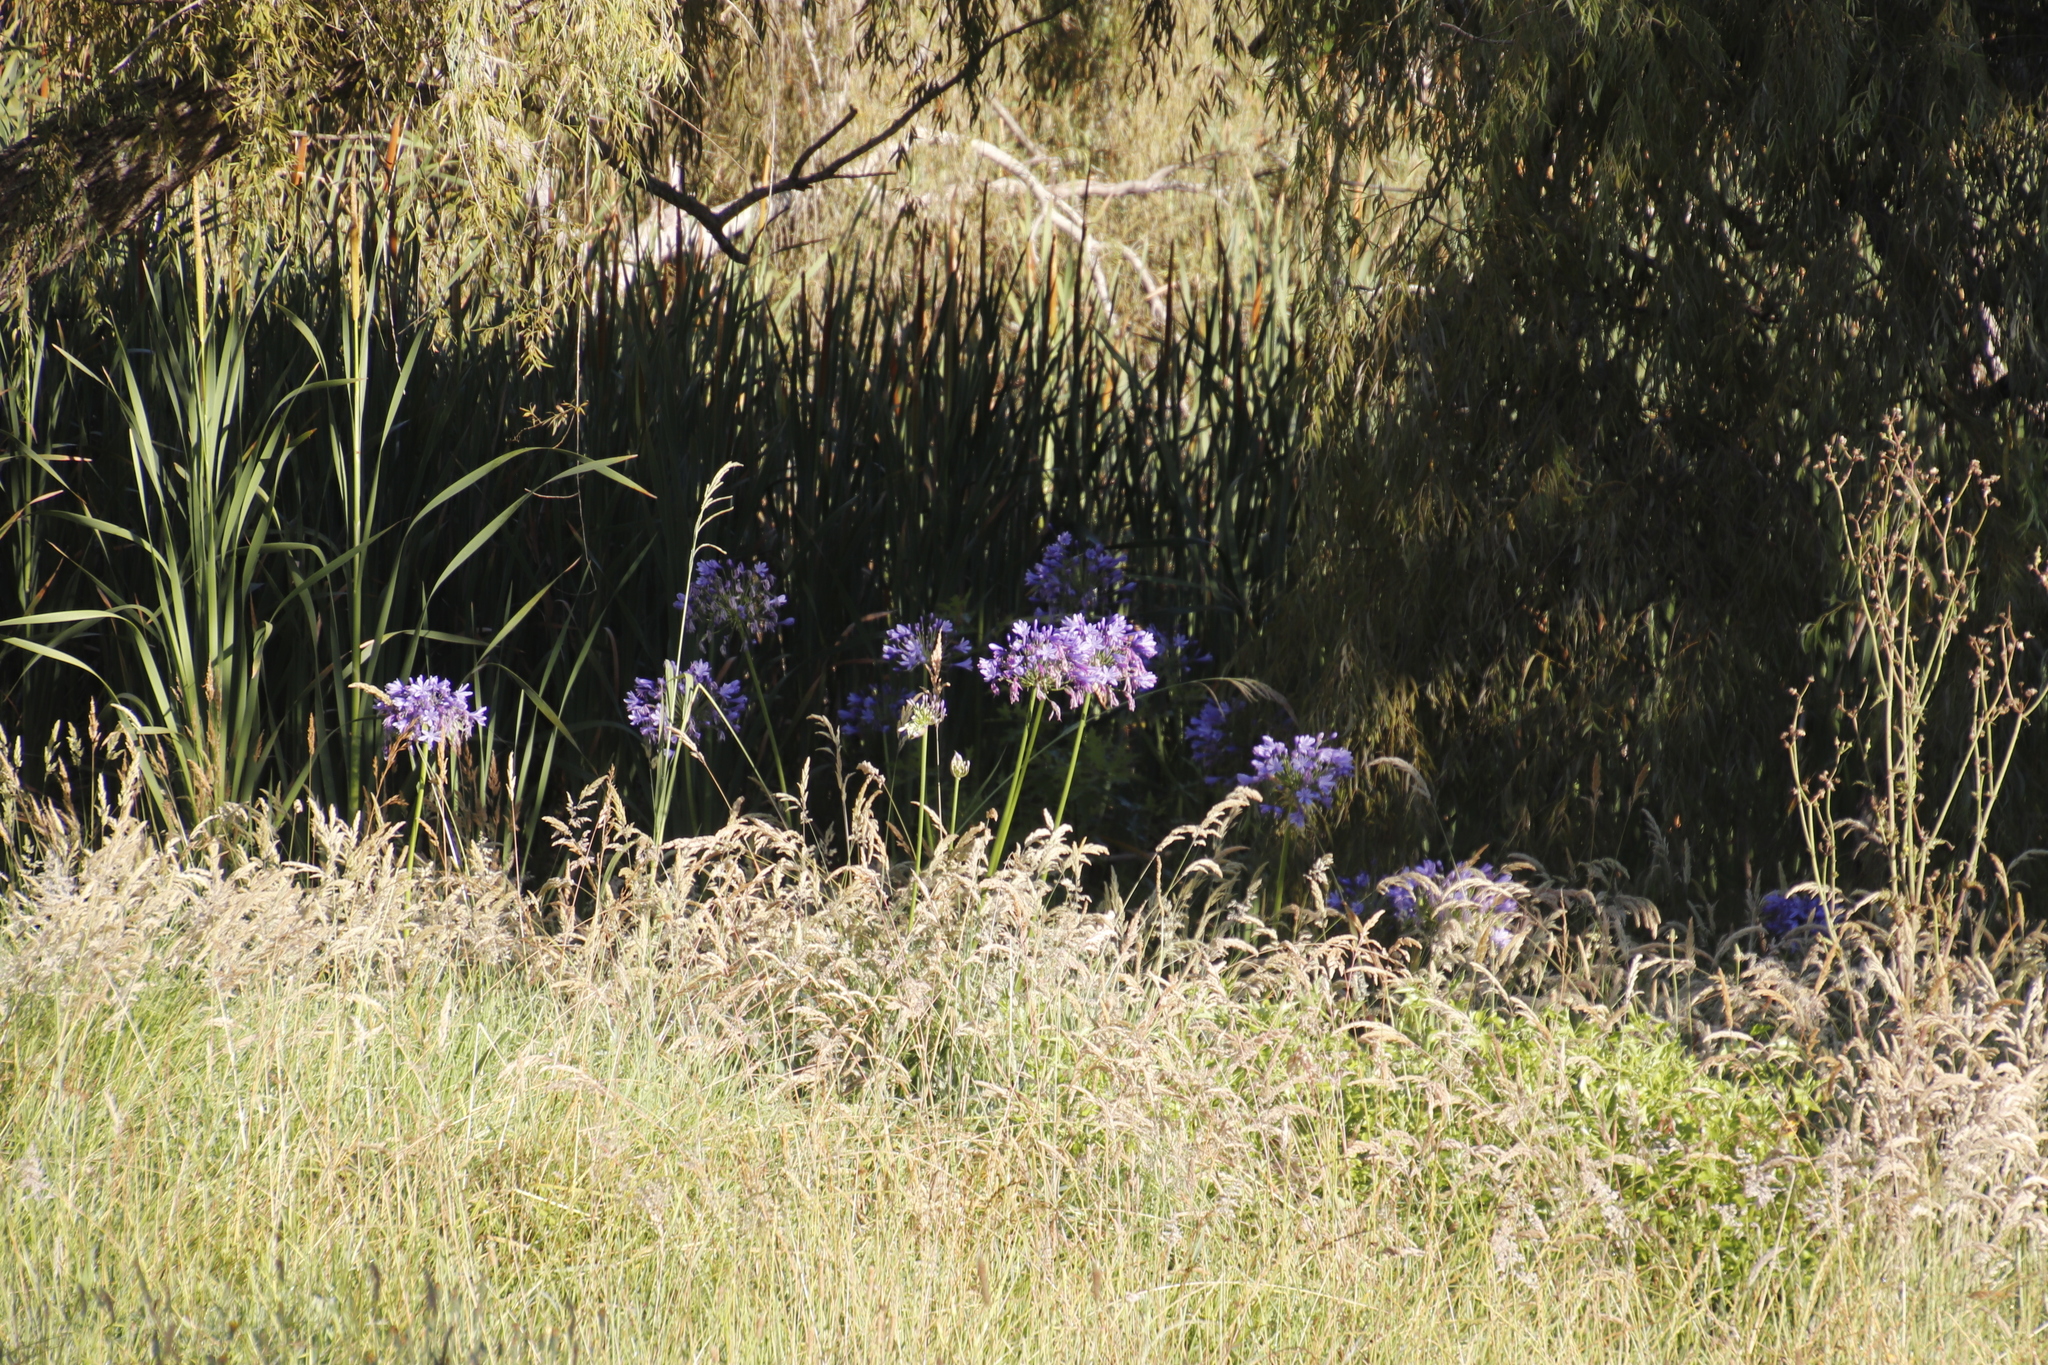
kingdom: Plantae
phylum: Tracheophyta
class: Liliopsida
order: Asparagales
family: Amaryllidaceae
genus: Agapanthus
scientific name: Agapanthus praecox
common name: African-lily
